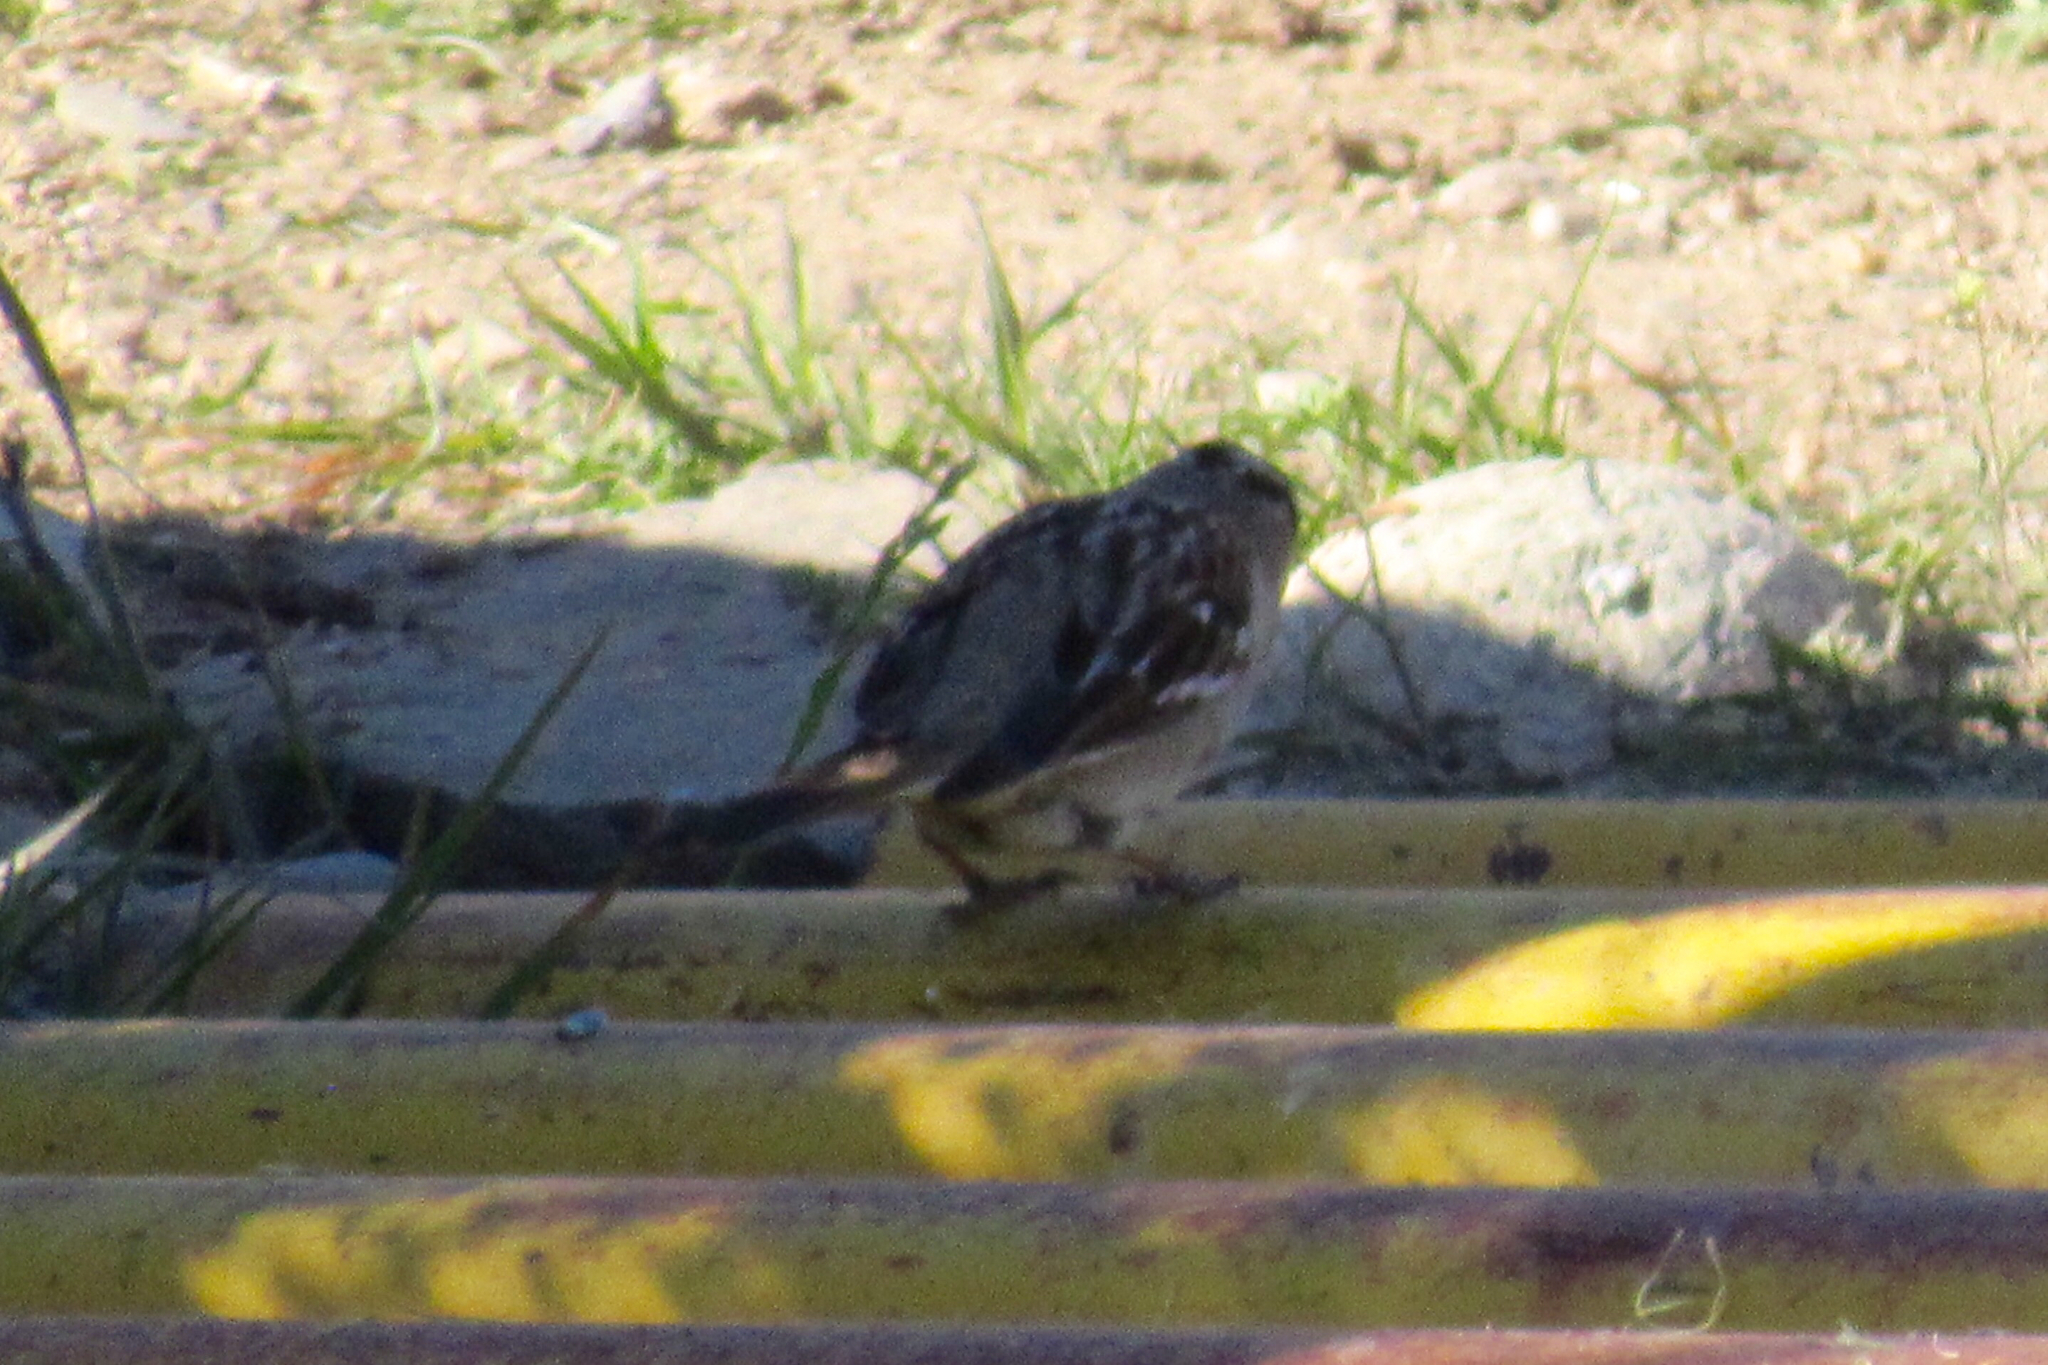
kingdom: Animalia
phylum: Chordata
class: Aves
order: Passeriformes
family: Passerellidae
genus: Zonotrichia
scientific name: Zonotrichia leucophrys
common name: White-crowned sparrow
